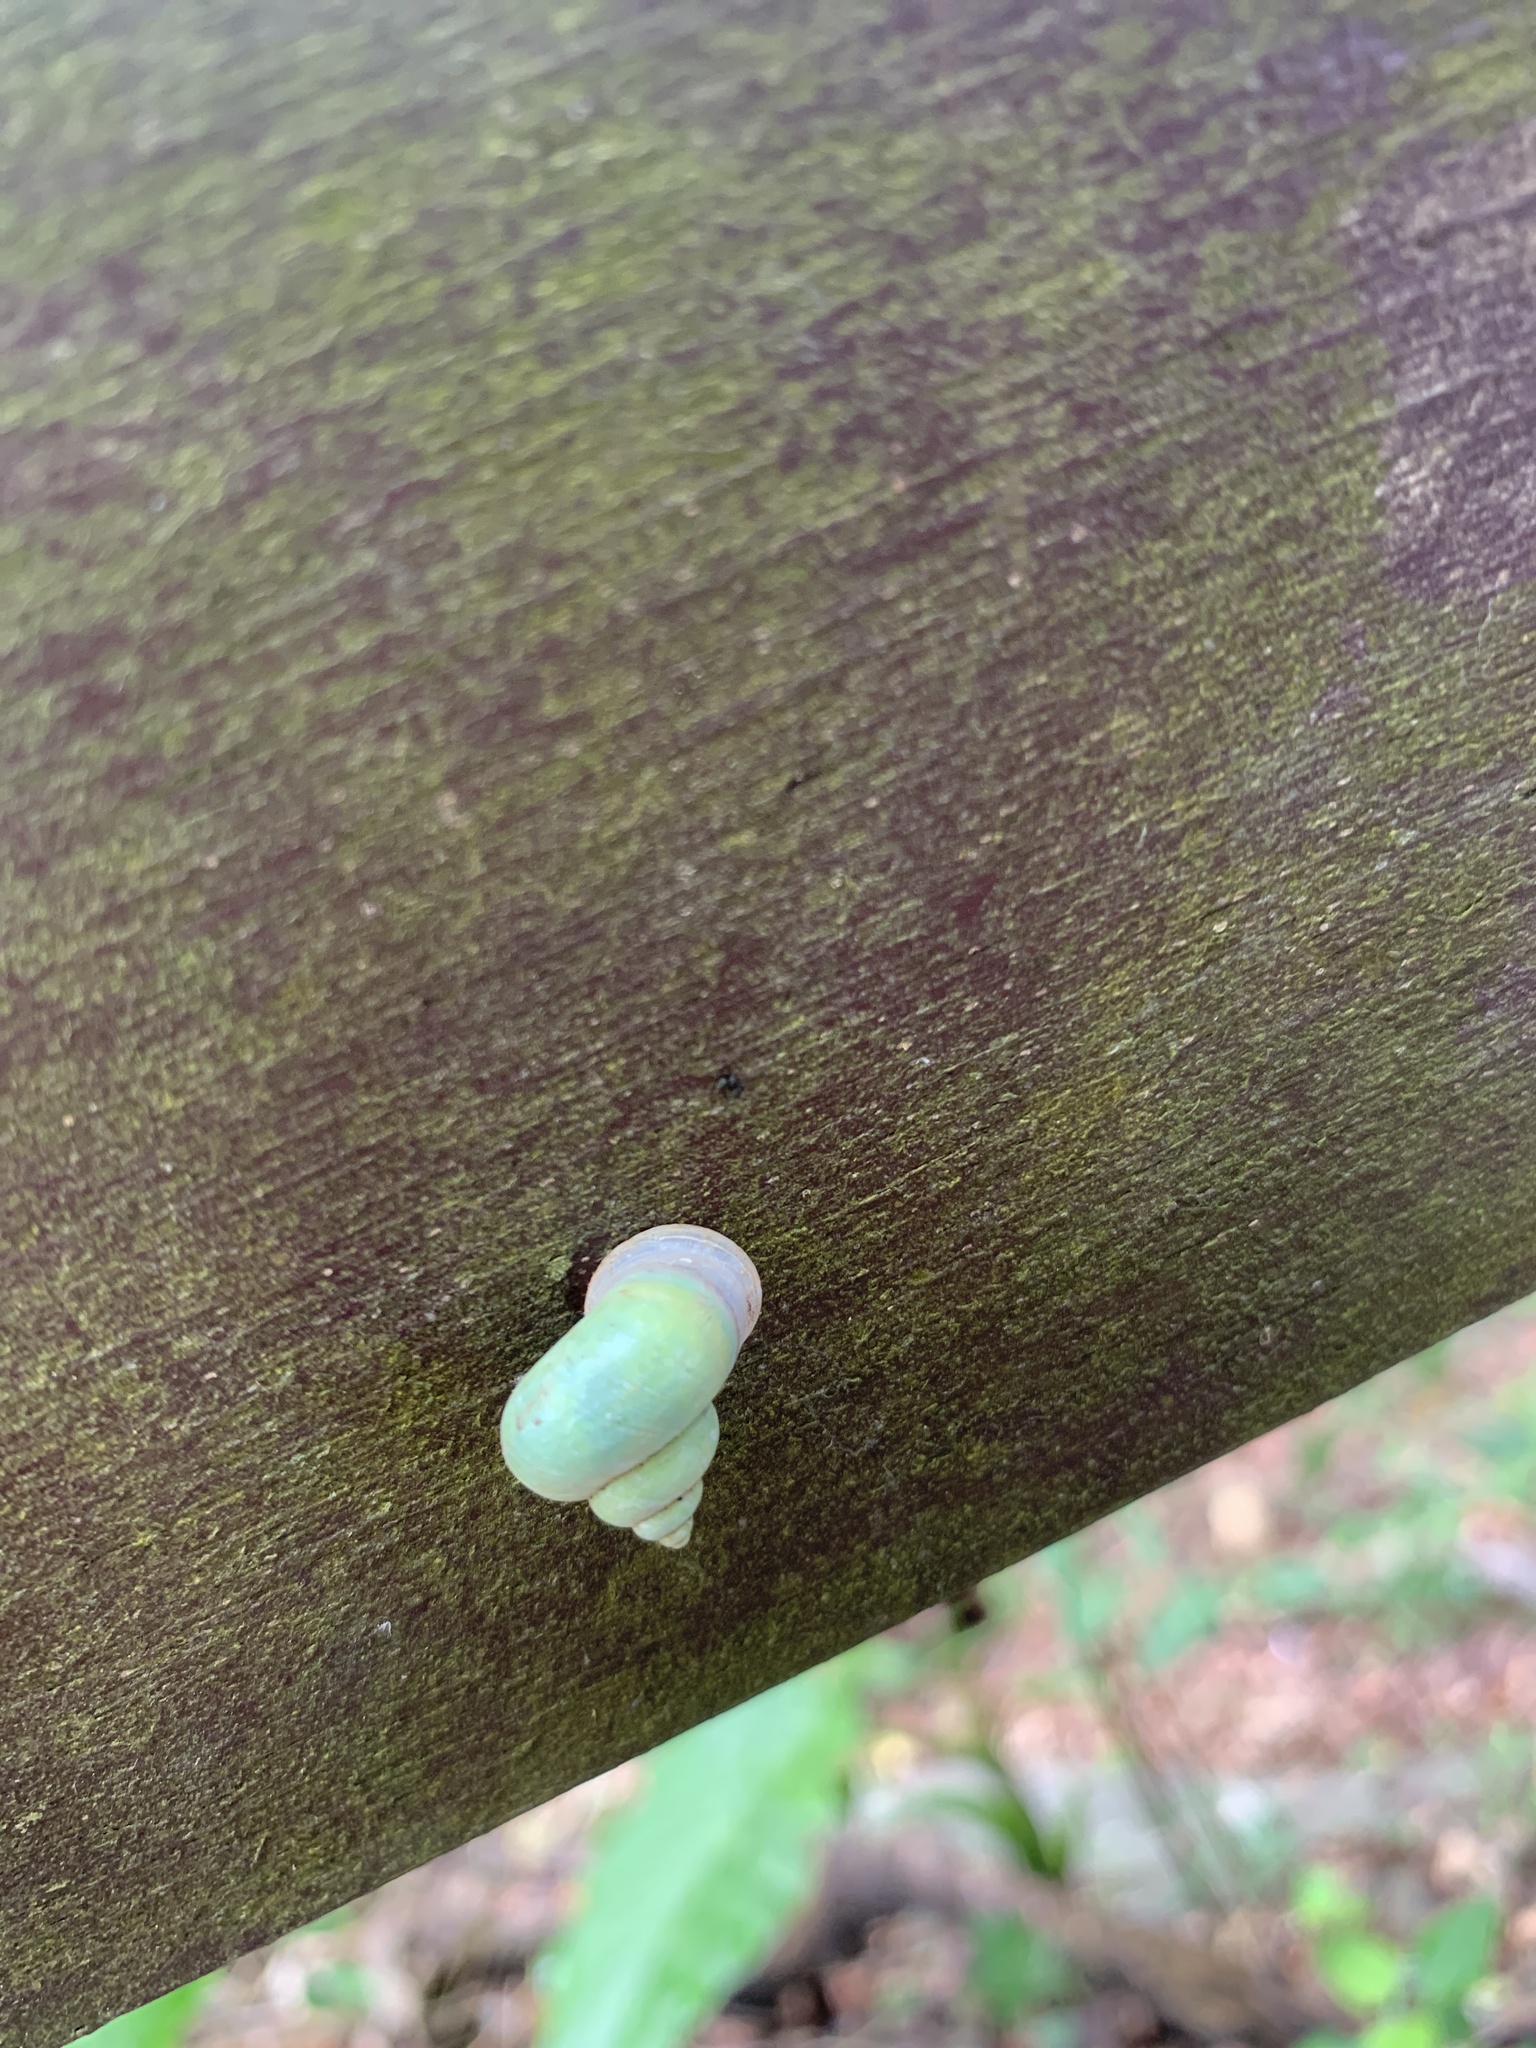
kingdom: Animalia
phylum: Mollusca
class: Gastropoda
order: Architaenioglossa
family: Cyclophoridae
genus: Leptopoma
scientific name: Leptopoma nitidum
